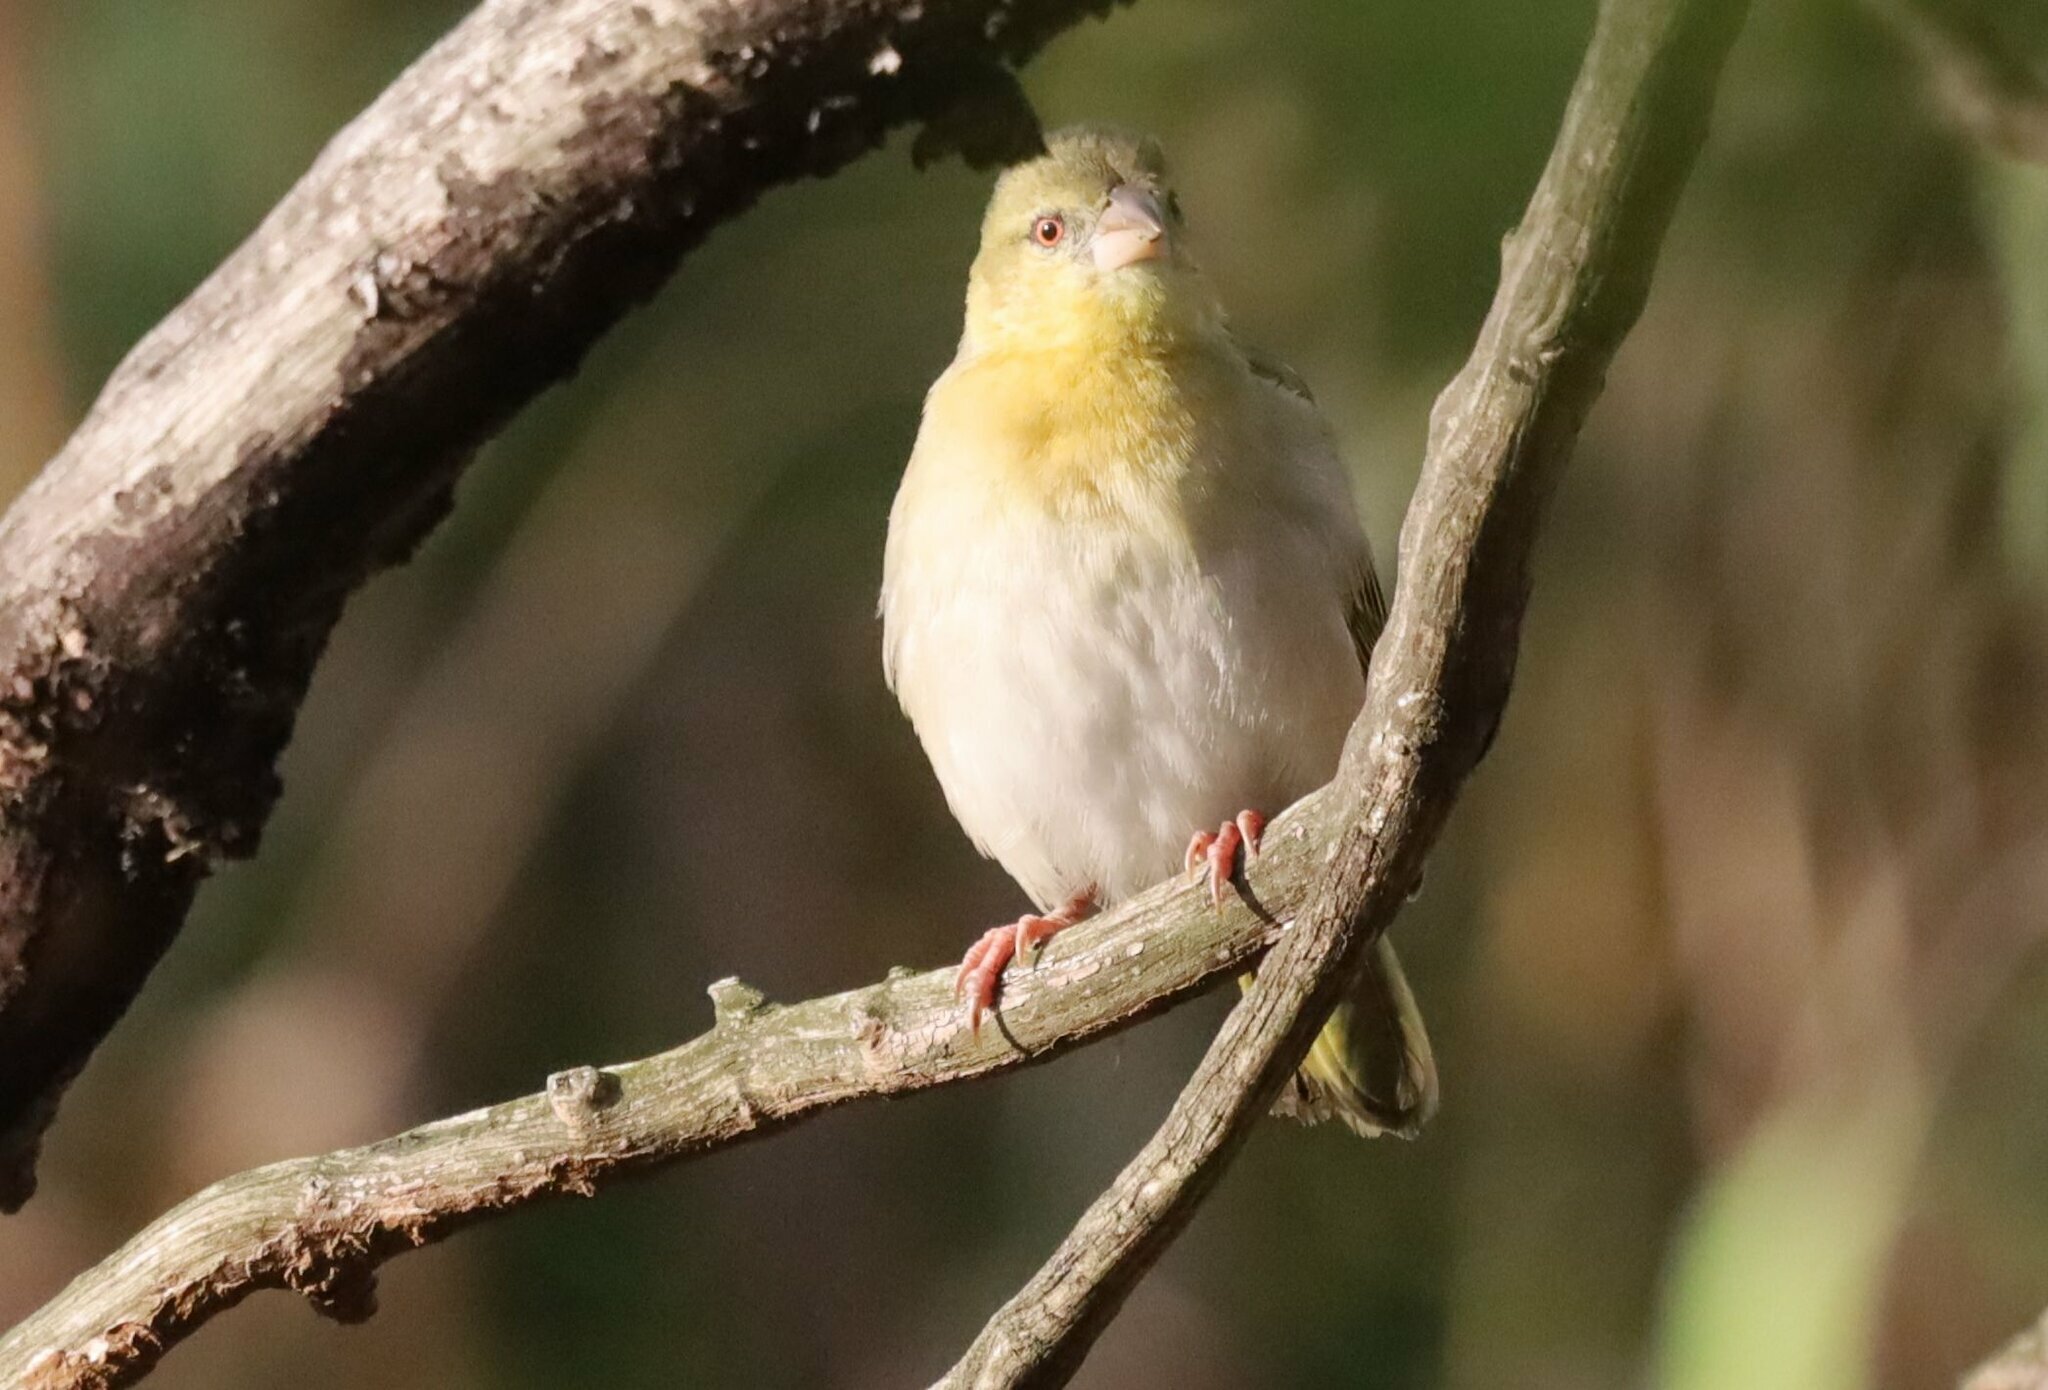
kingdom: Animalia
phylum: Chordata
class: Aves
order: Passeriformes
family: Ploceidae
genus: Ploceus
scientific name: Ploceus velatus
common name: Southern masked weaver
